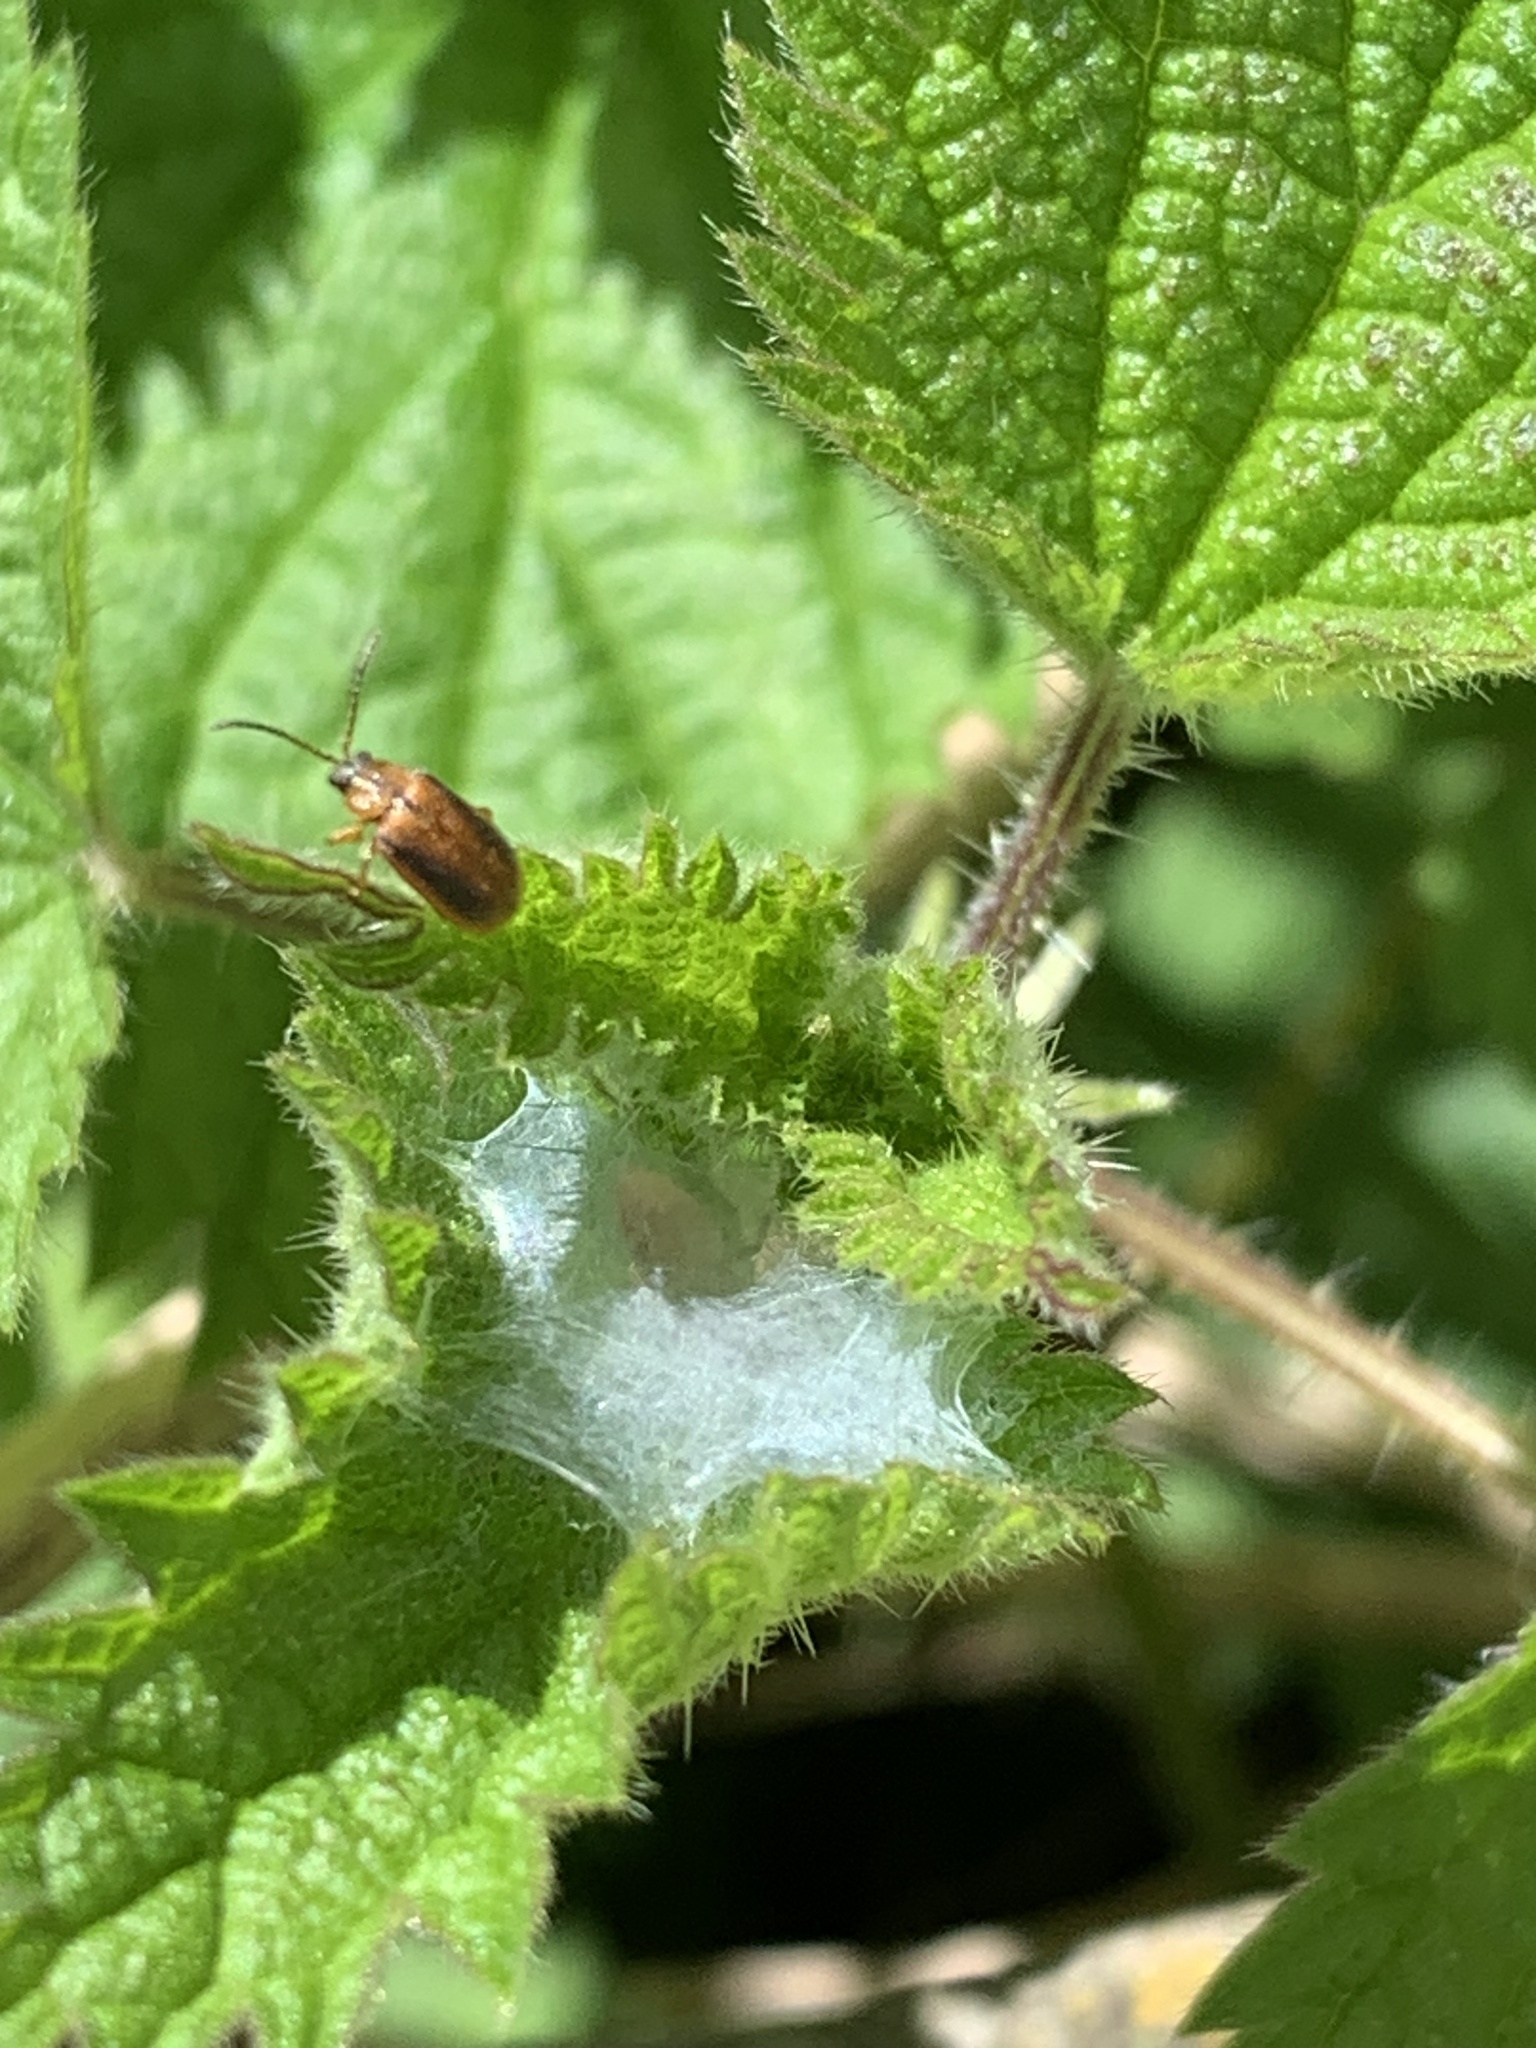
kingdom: Animalia
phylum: Arthropoda
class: Insecta
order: Coleoptera
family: Chrysomelidae
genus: Neogalerucella
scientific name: Neogalerucella calmariensis
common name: Black-margined loosestrife beetle
